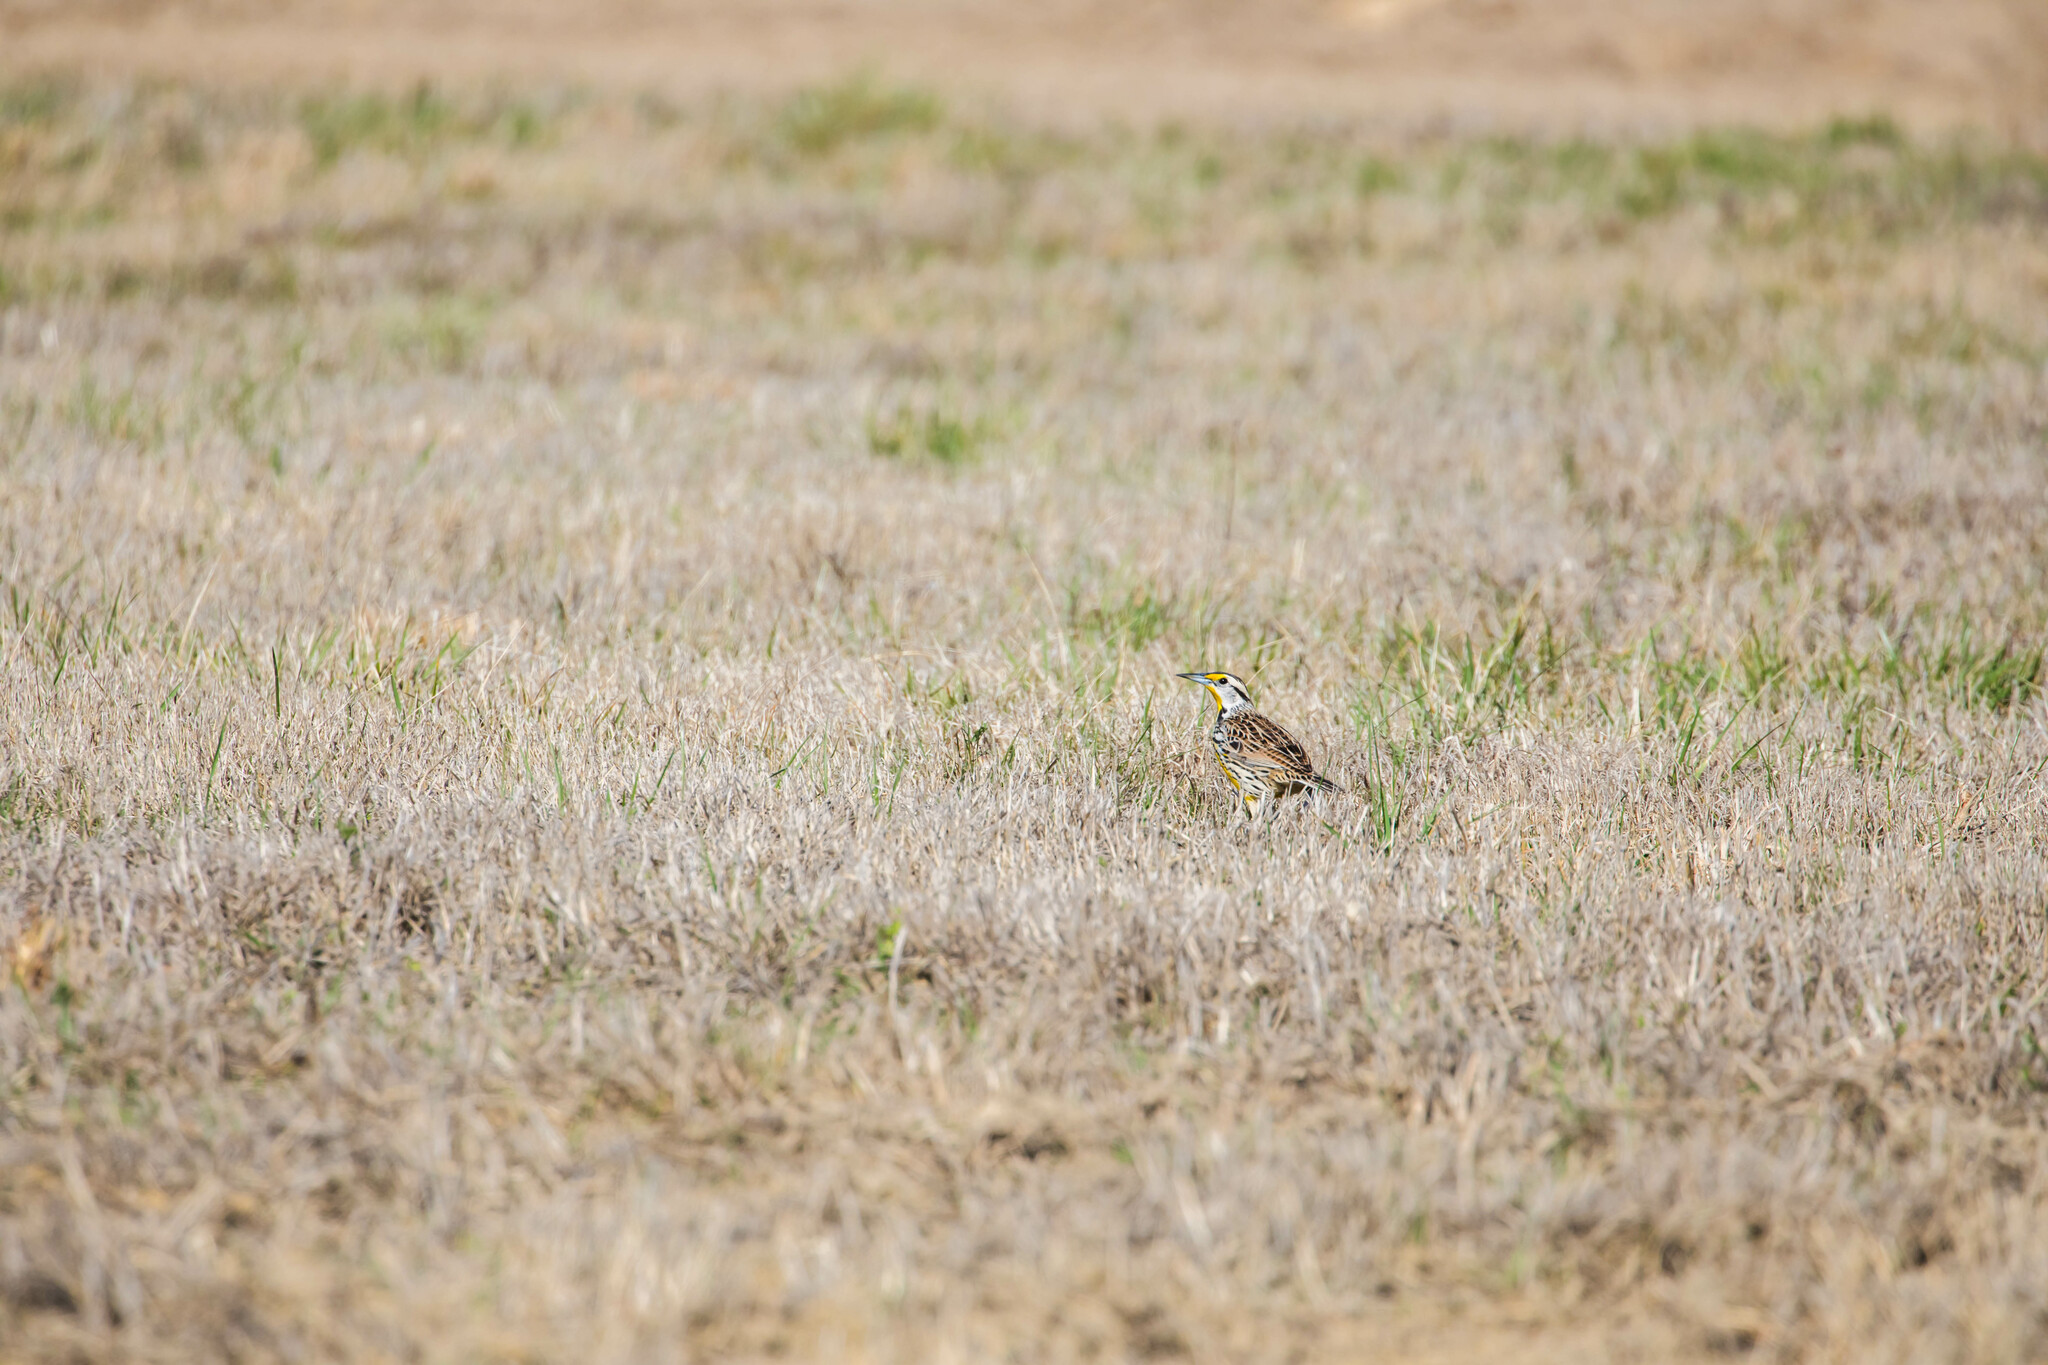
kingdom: Animalia
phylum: Chordata
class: Aves
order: Passeriformes
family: Icteridae
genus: Sturnella
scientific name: Sturnella magna
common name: Eastern meadowlark
